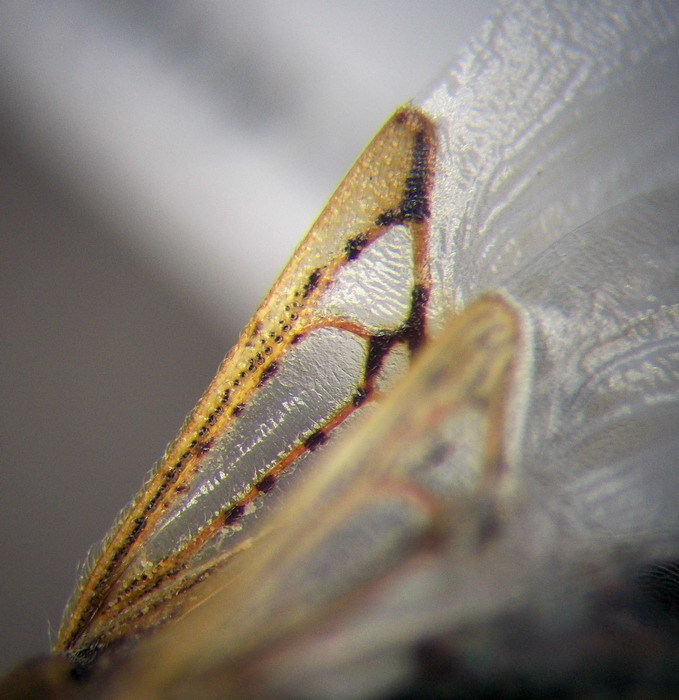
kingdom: Animalia
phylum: Arthropoda
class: Insecta
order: Hemiptera
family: Rhopalidae
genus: Stictopleurus
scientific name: Stictopleurus punctatonervosus
